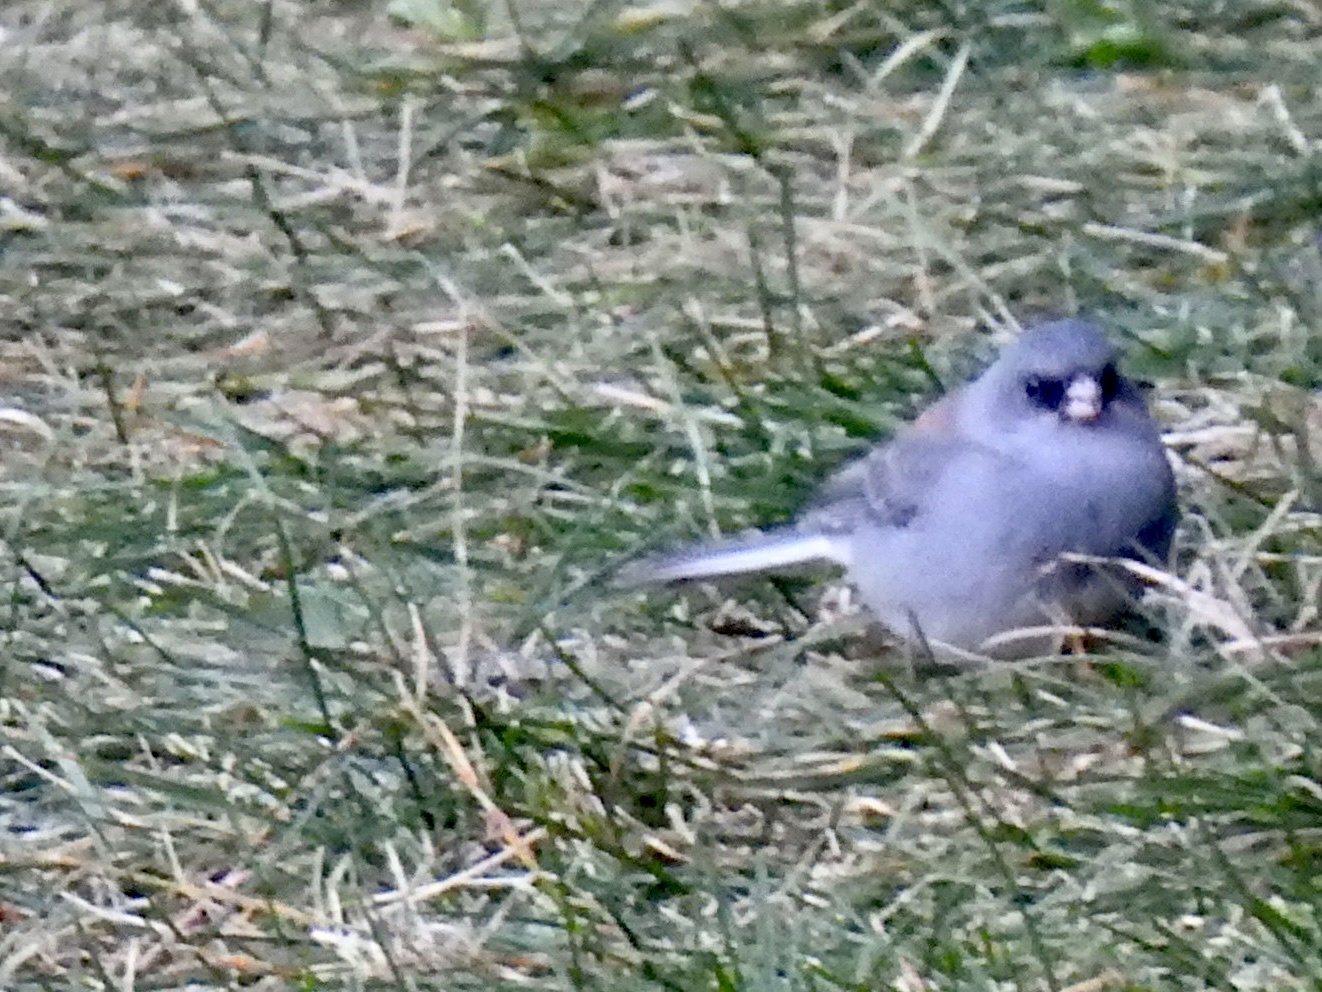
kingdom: Animalia
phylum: Chordata
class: Aves
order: Passeriformes
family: Passerellidae
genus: Junco
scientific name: Junco hyemalis
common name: Dark-eyed junco
